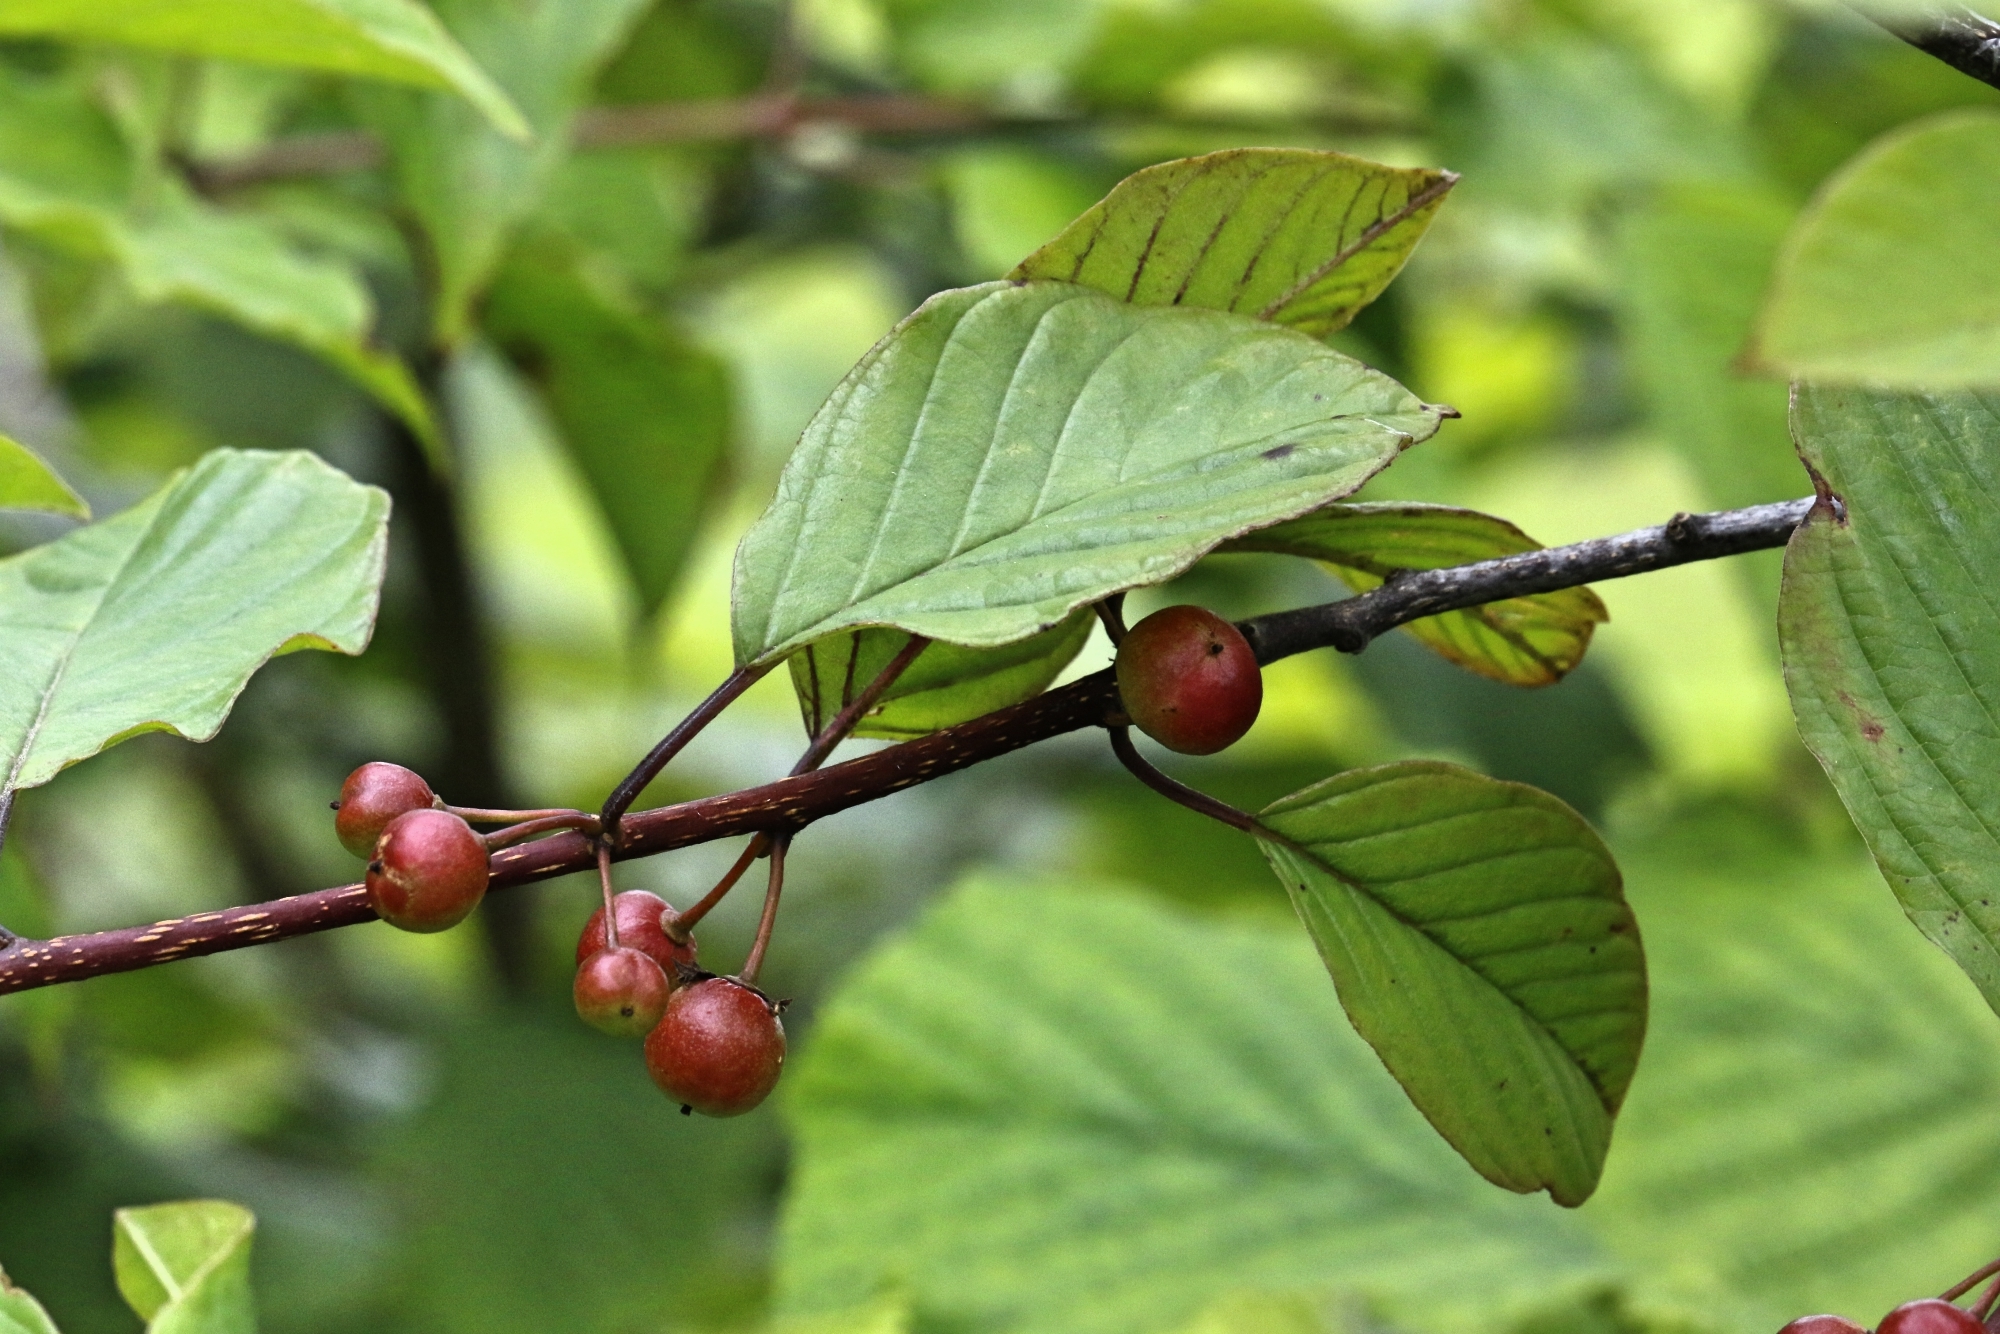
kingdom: Plantae
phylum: Tracheophyta
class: Magnoliopsida
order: Rosales
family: Rhamnaceae
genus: Frangula
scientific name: Frangula alnus
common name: Alder buckthorn
